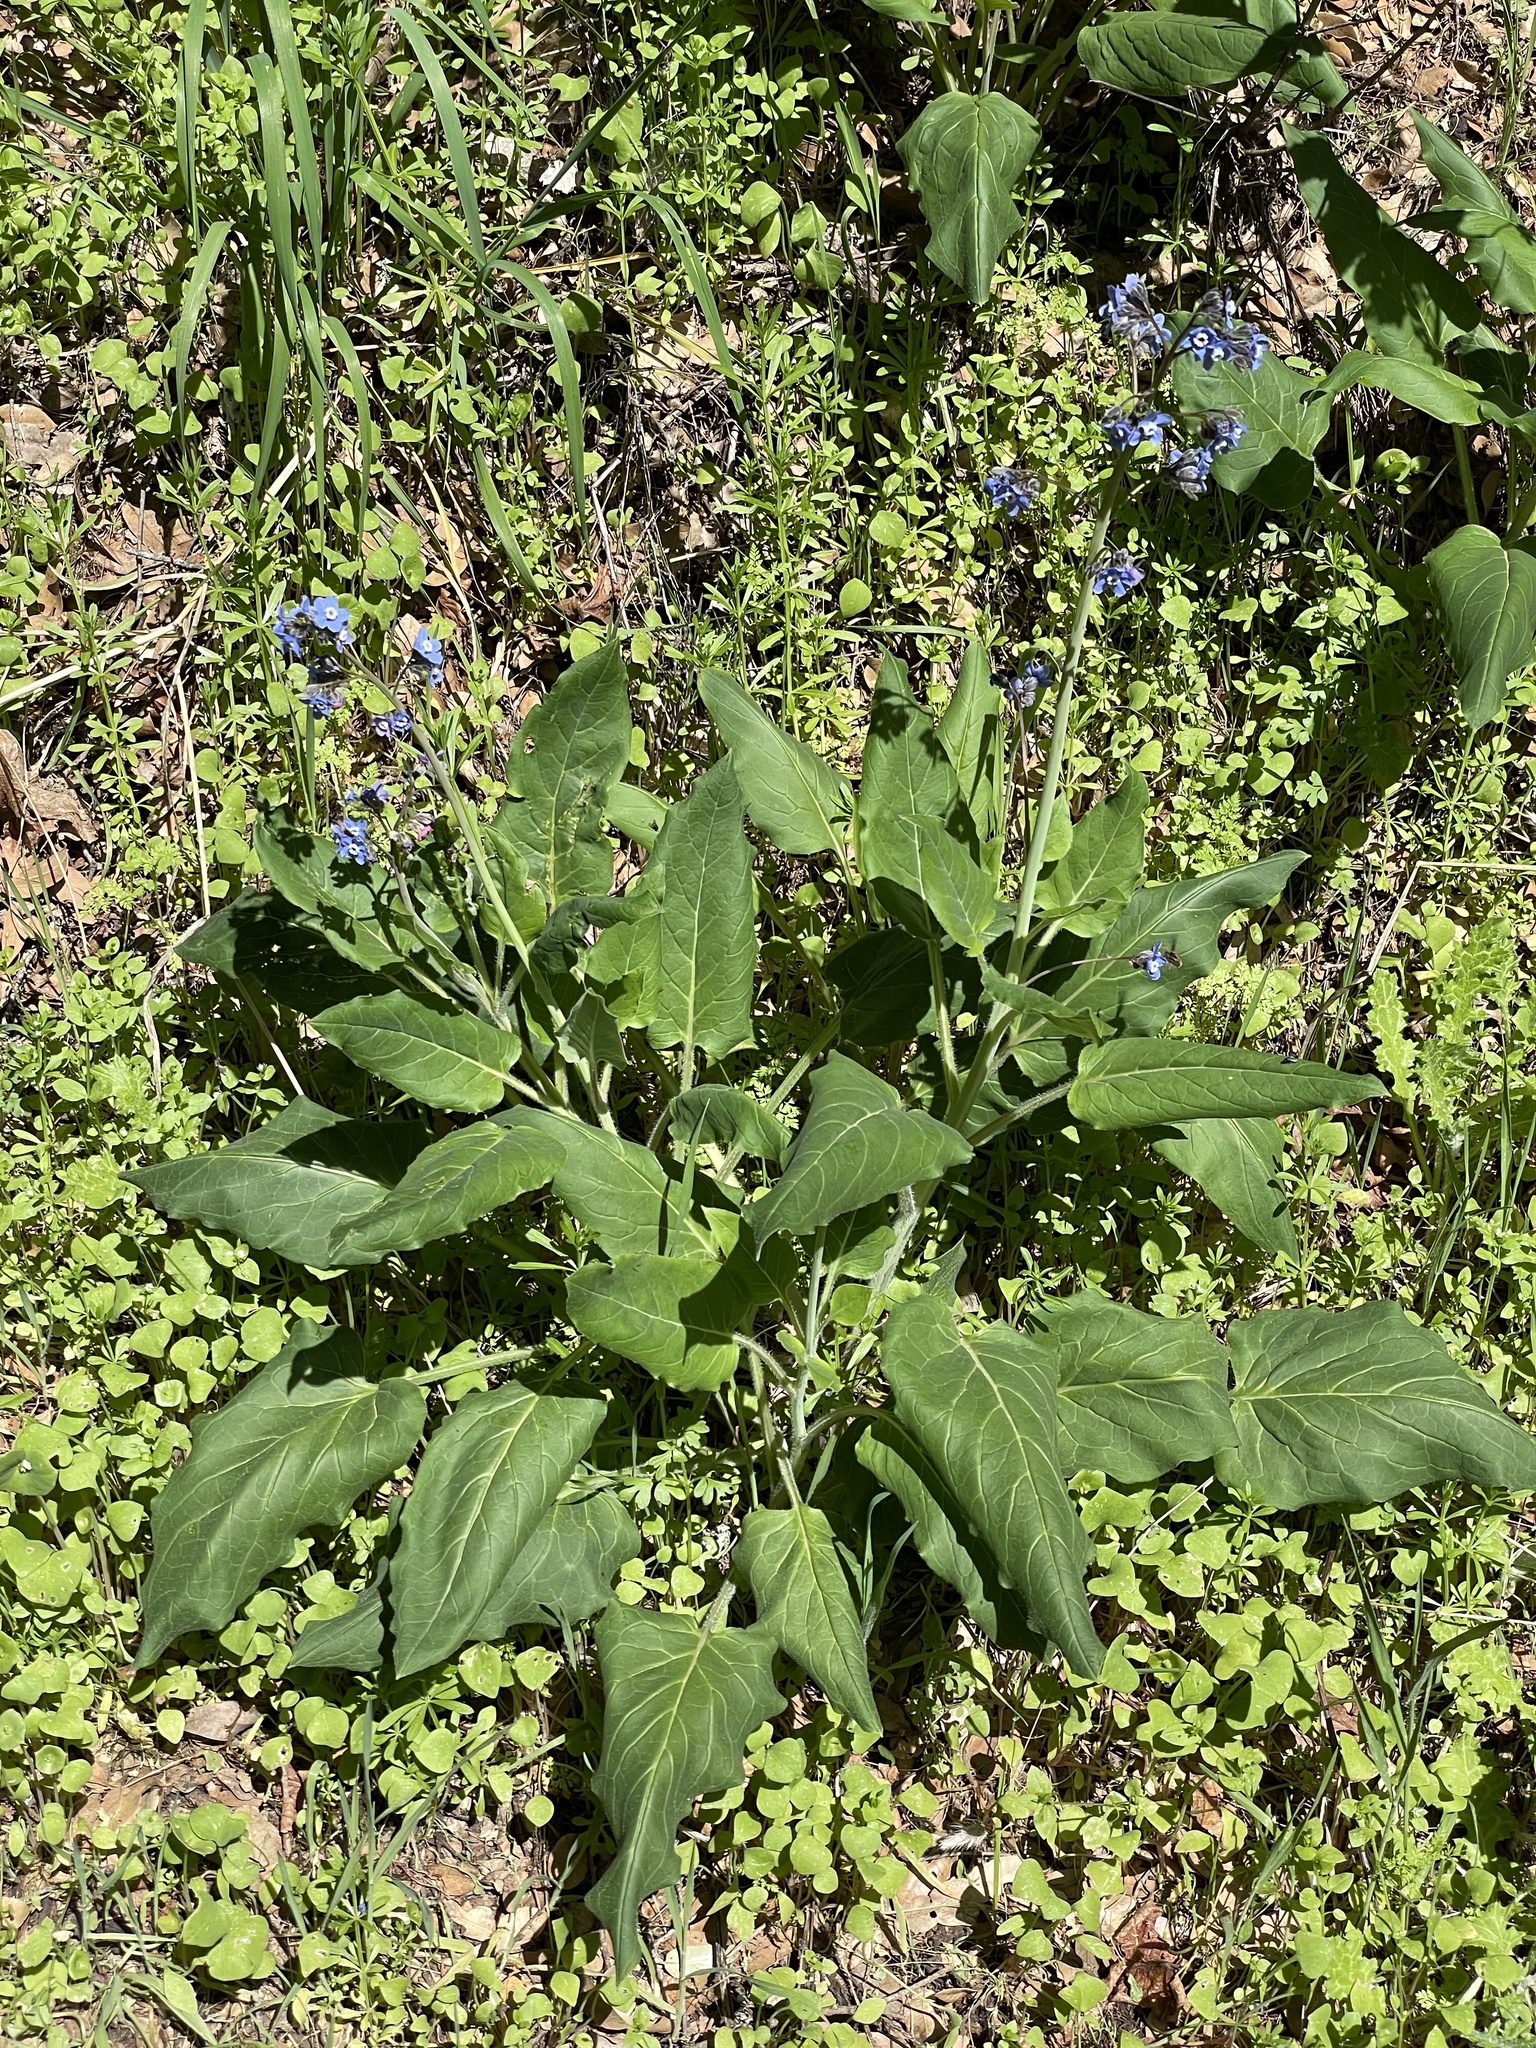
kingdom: Plantae
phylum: Tracheophyta
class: Magnoliopsida
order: Boraginales
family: Boraginaceae
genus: Adelinia
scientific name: Adelinia grande
